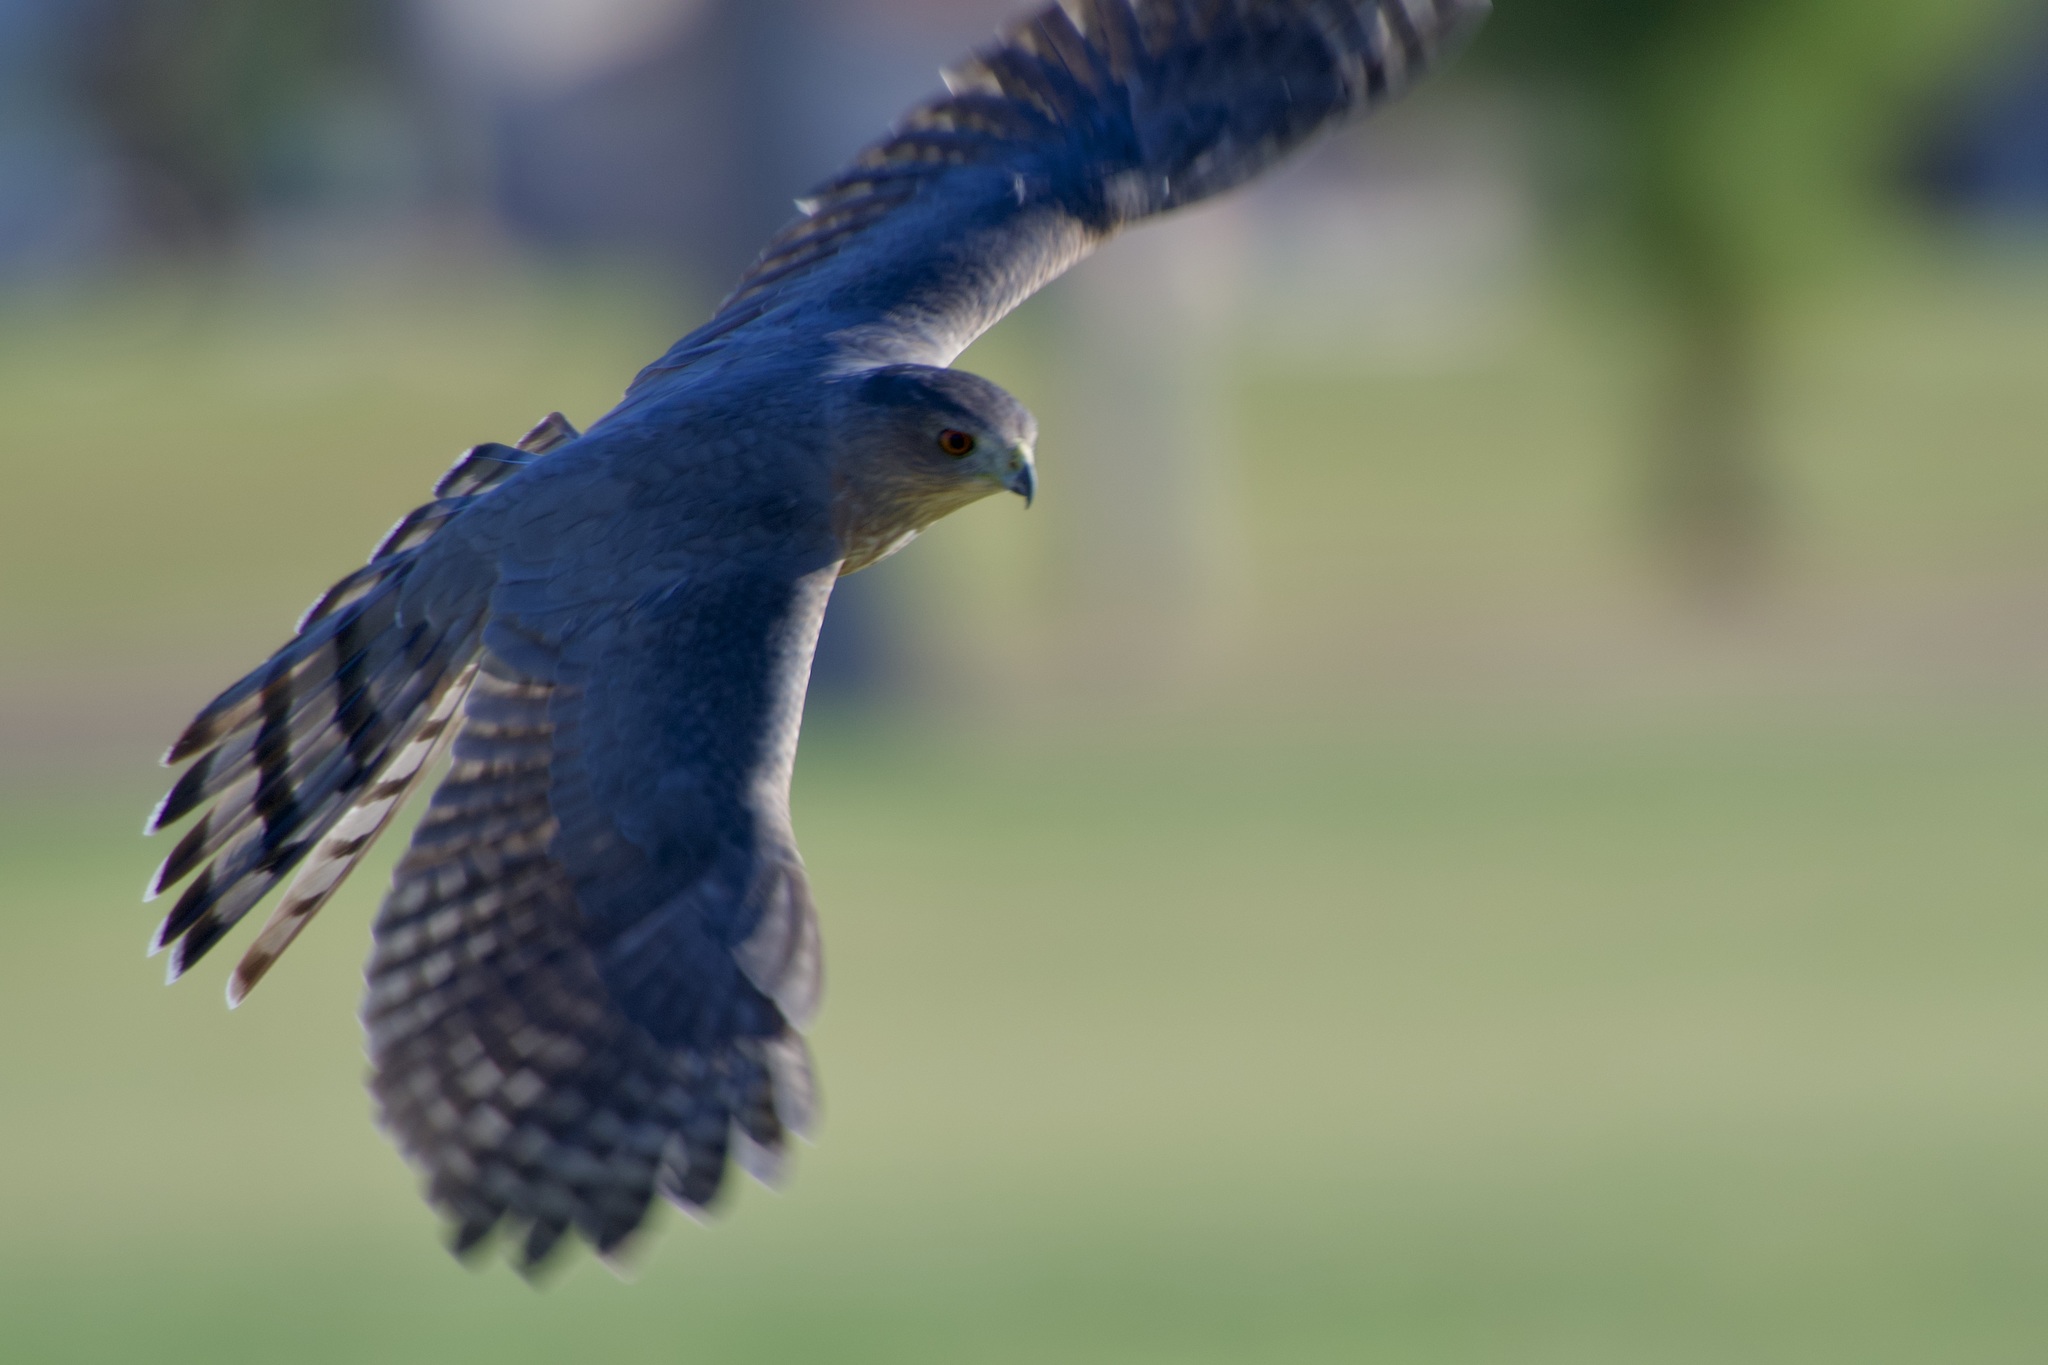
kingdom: Animalia
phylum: Chordata
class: Aves
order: Accipitriformes
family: Accipitridae
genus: Accipiter
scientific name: Accipiter cooperii
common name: Cooper's hawk
